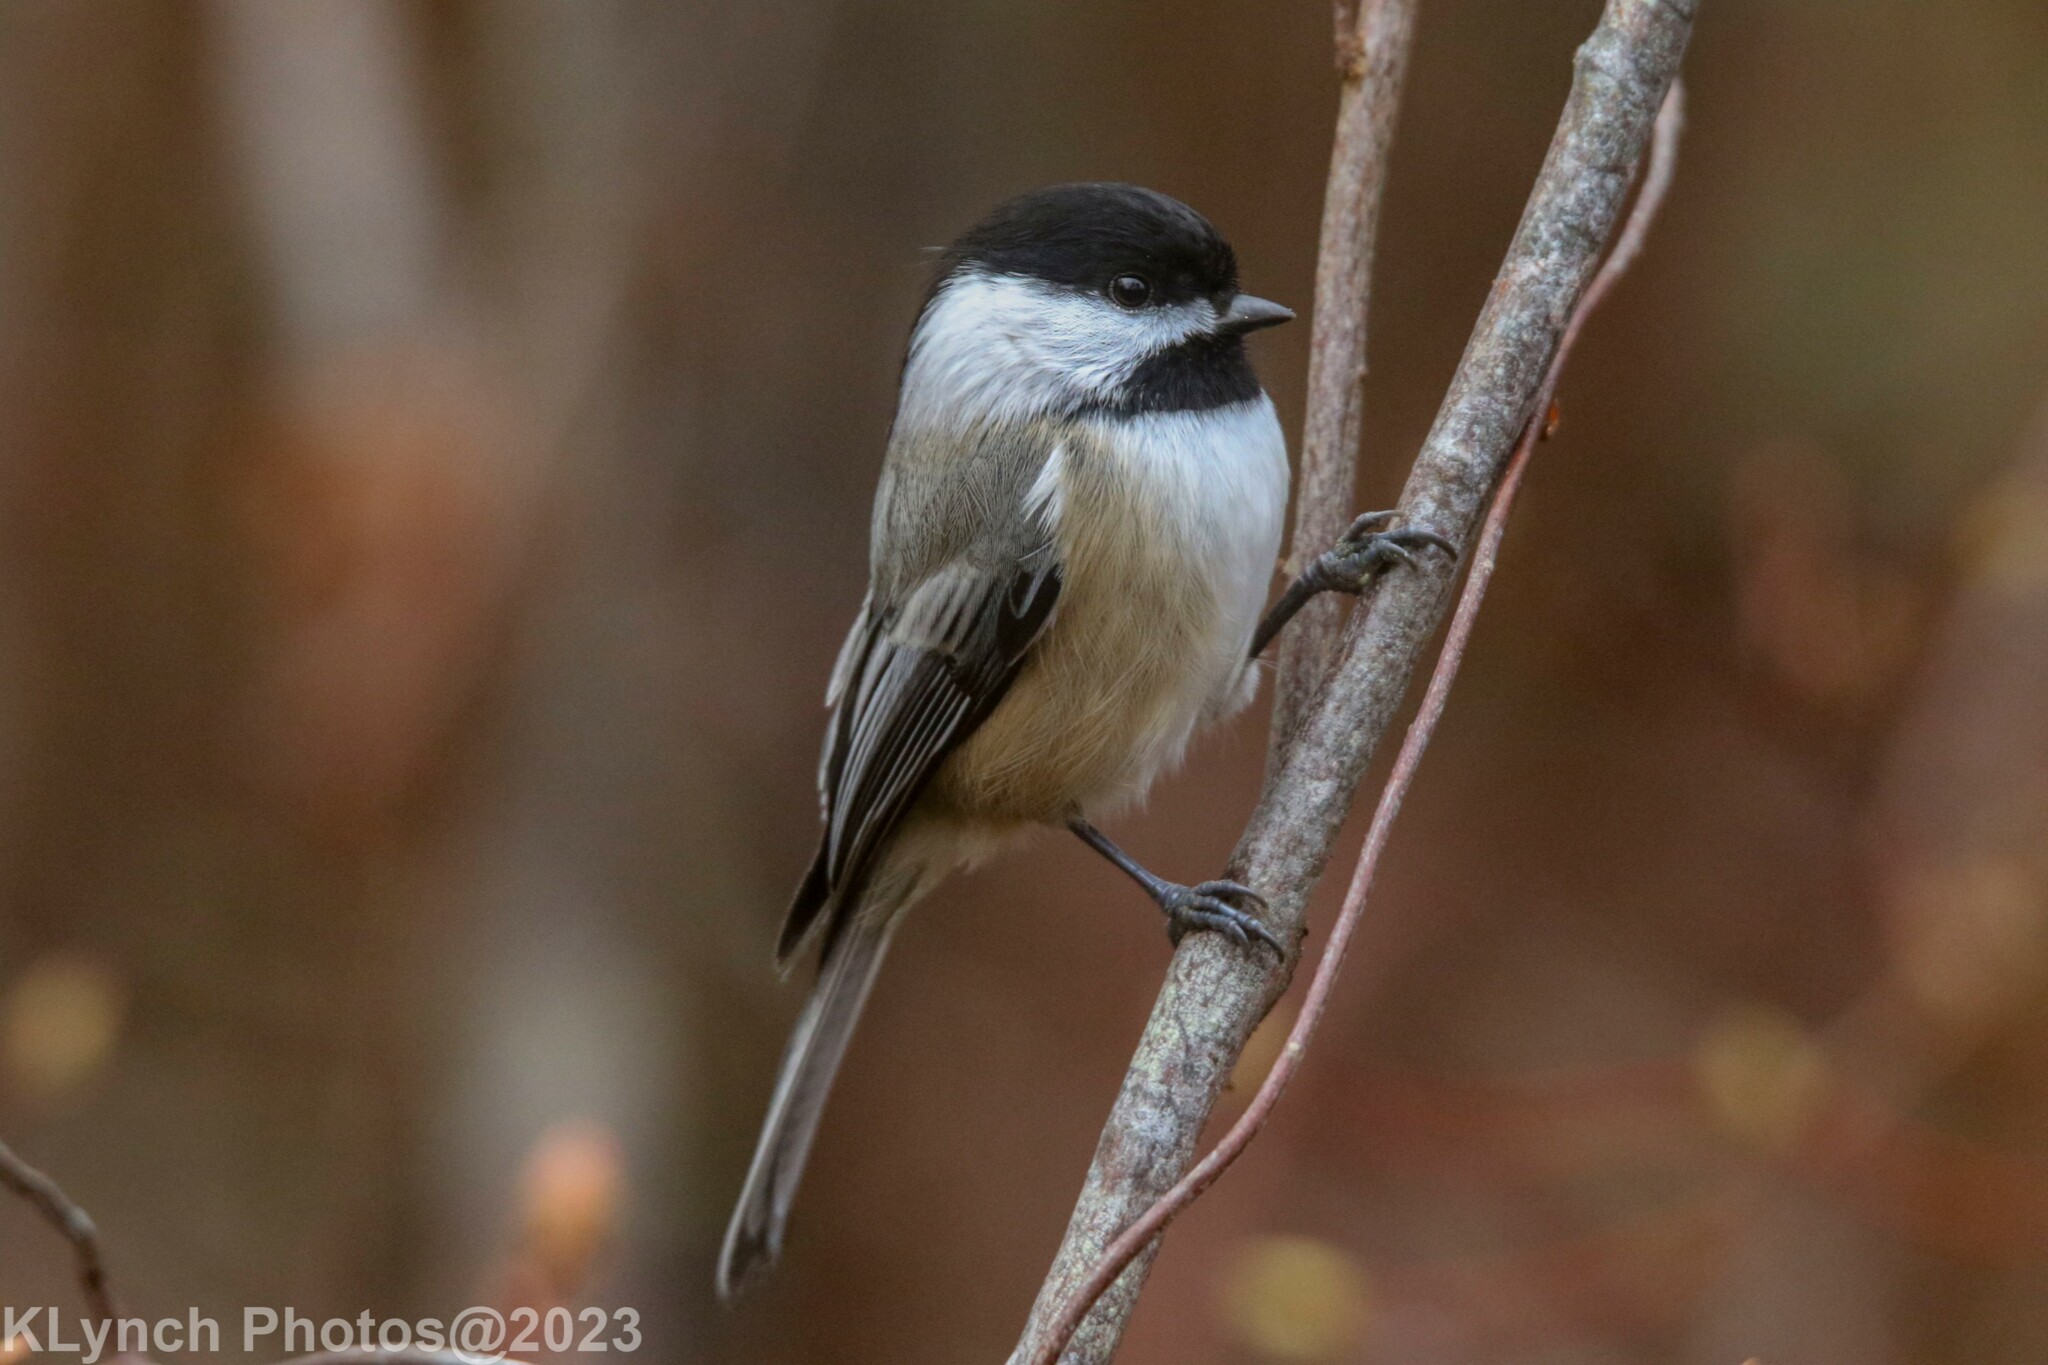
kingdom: Animalia
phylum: Chordata
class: Aves
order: Passeriformes
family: Paridae
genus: Poecile
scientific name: Poecile atricapillus
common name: Black-capped chickadee
